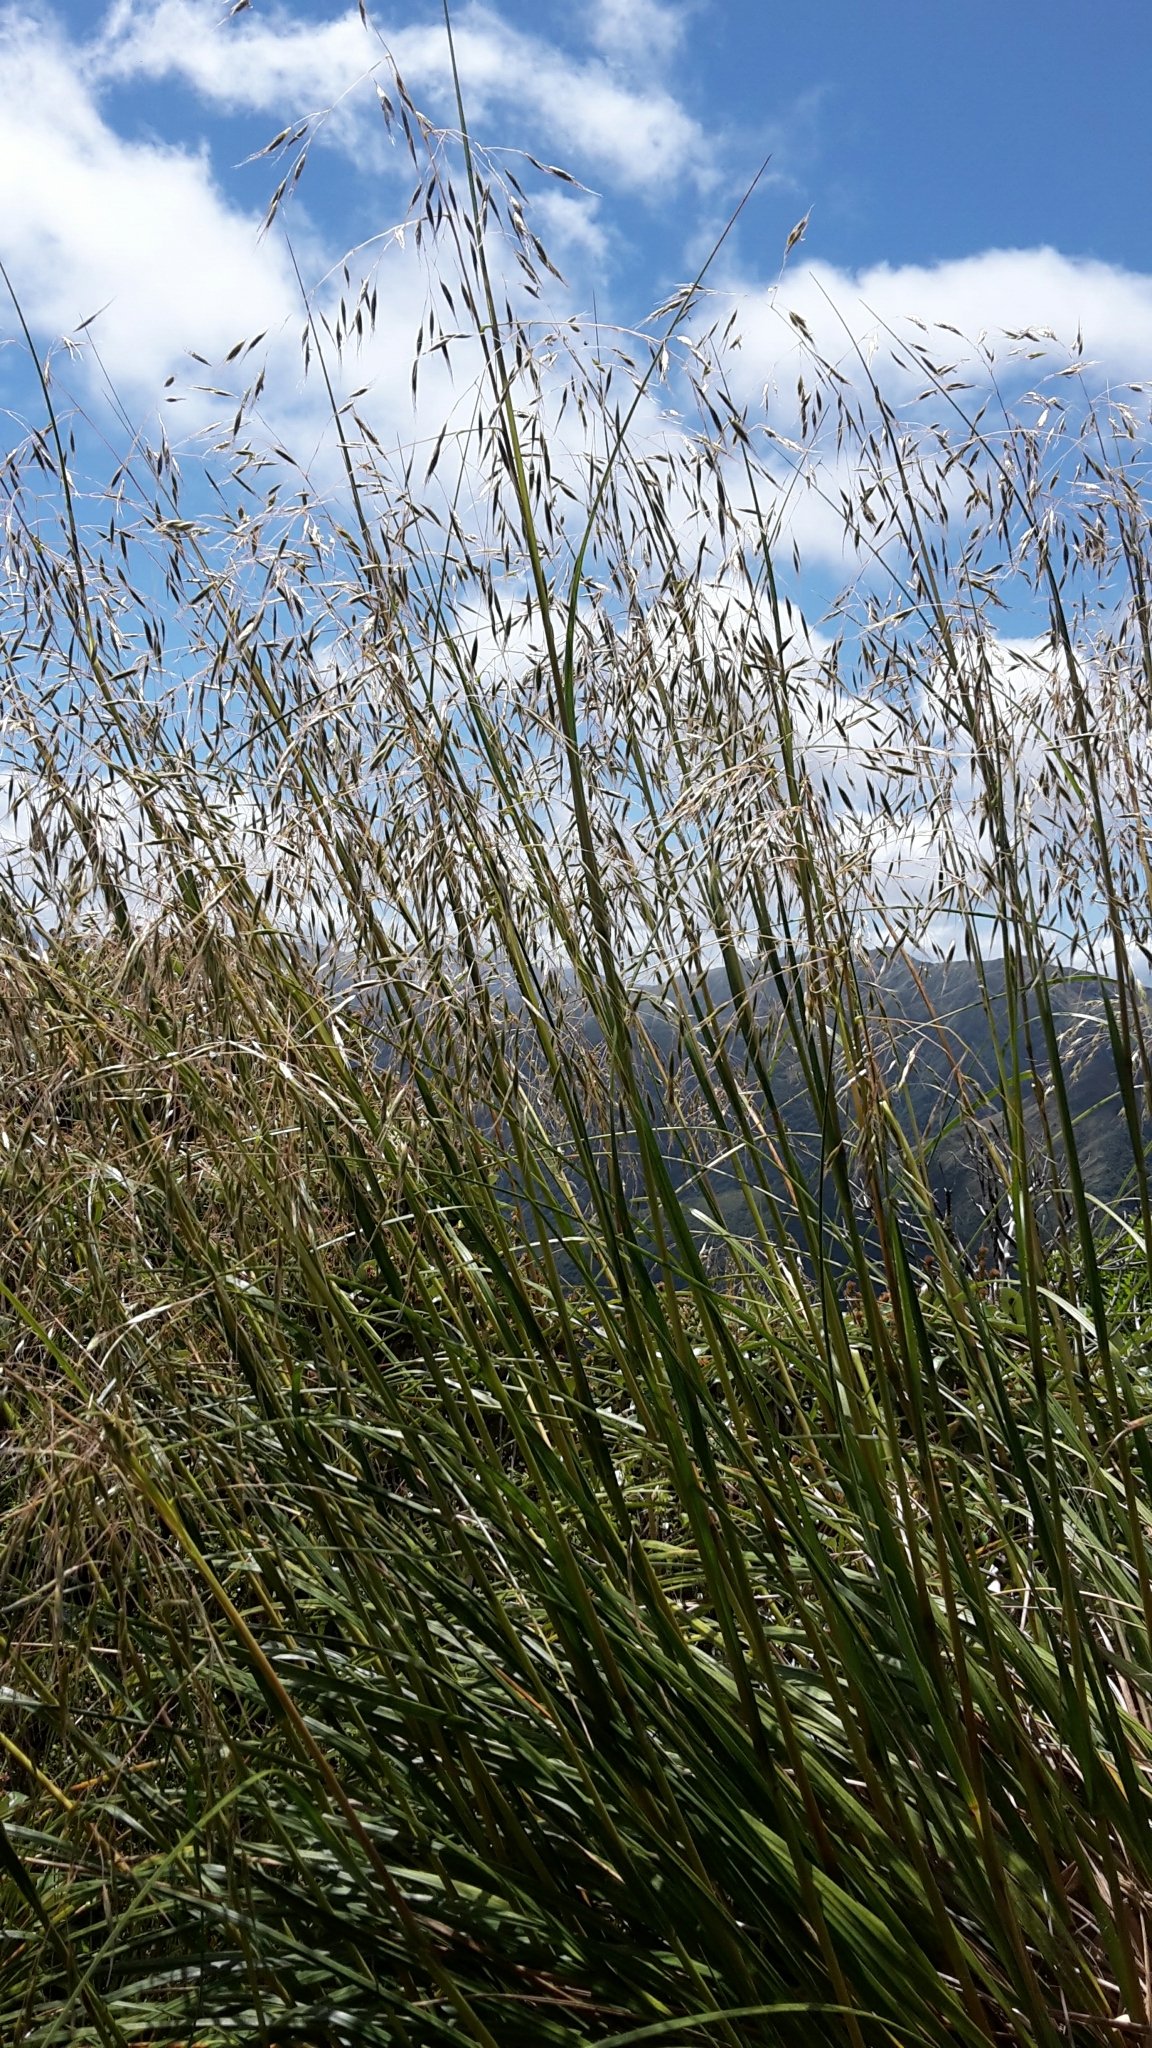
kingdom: Plantae
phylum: Tracheophyta
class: Liliopsida
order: Poales
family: Poaceae
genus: Chionochloa
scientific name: Chionochloa conspicua
